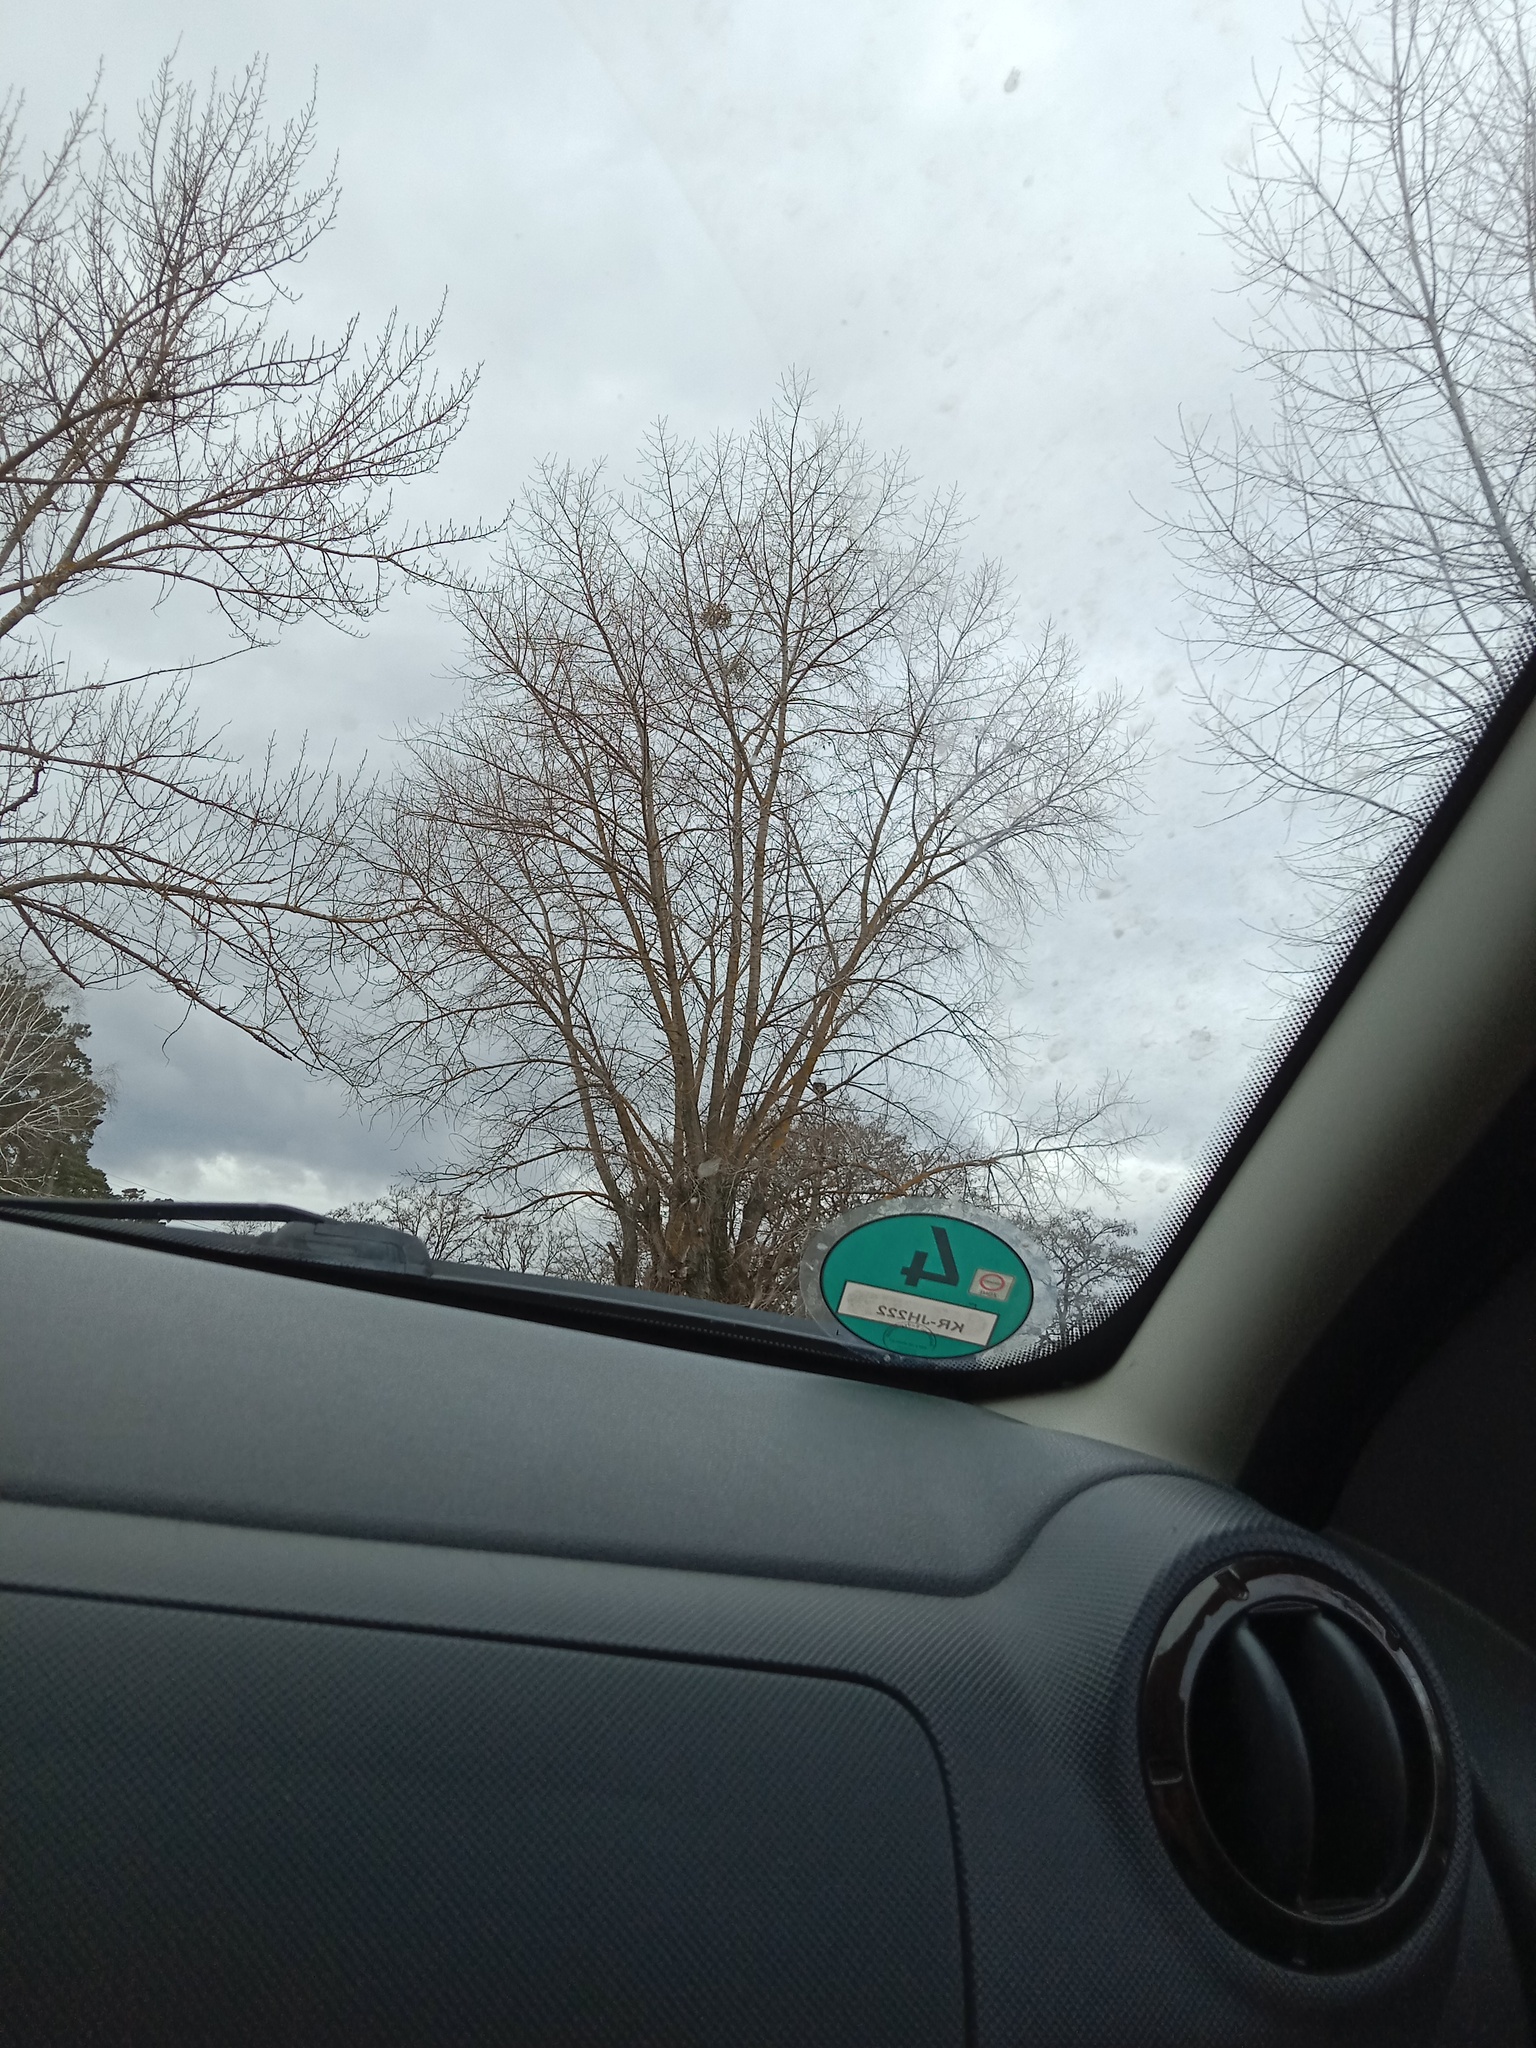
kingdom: Plantae
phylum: Tracheophyta
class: Magnoliopsida
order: Santalales
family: Viscaceae
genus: Viscum
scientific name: Viscum album
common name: Mistletoe
